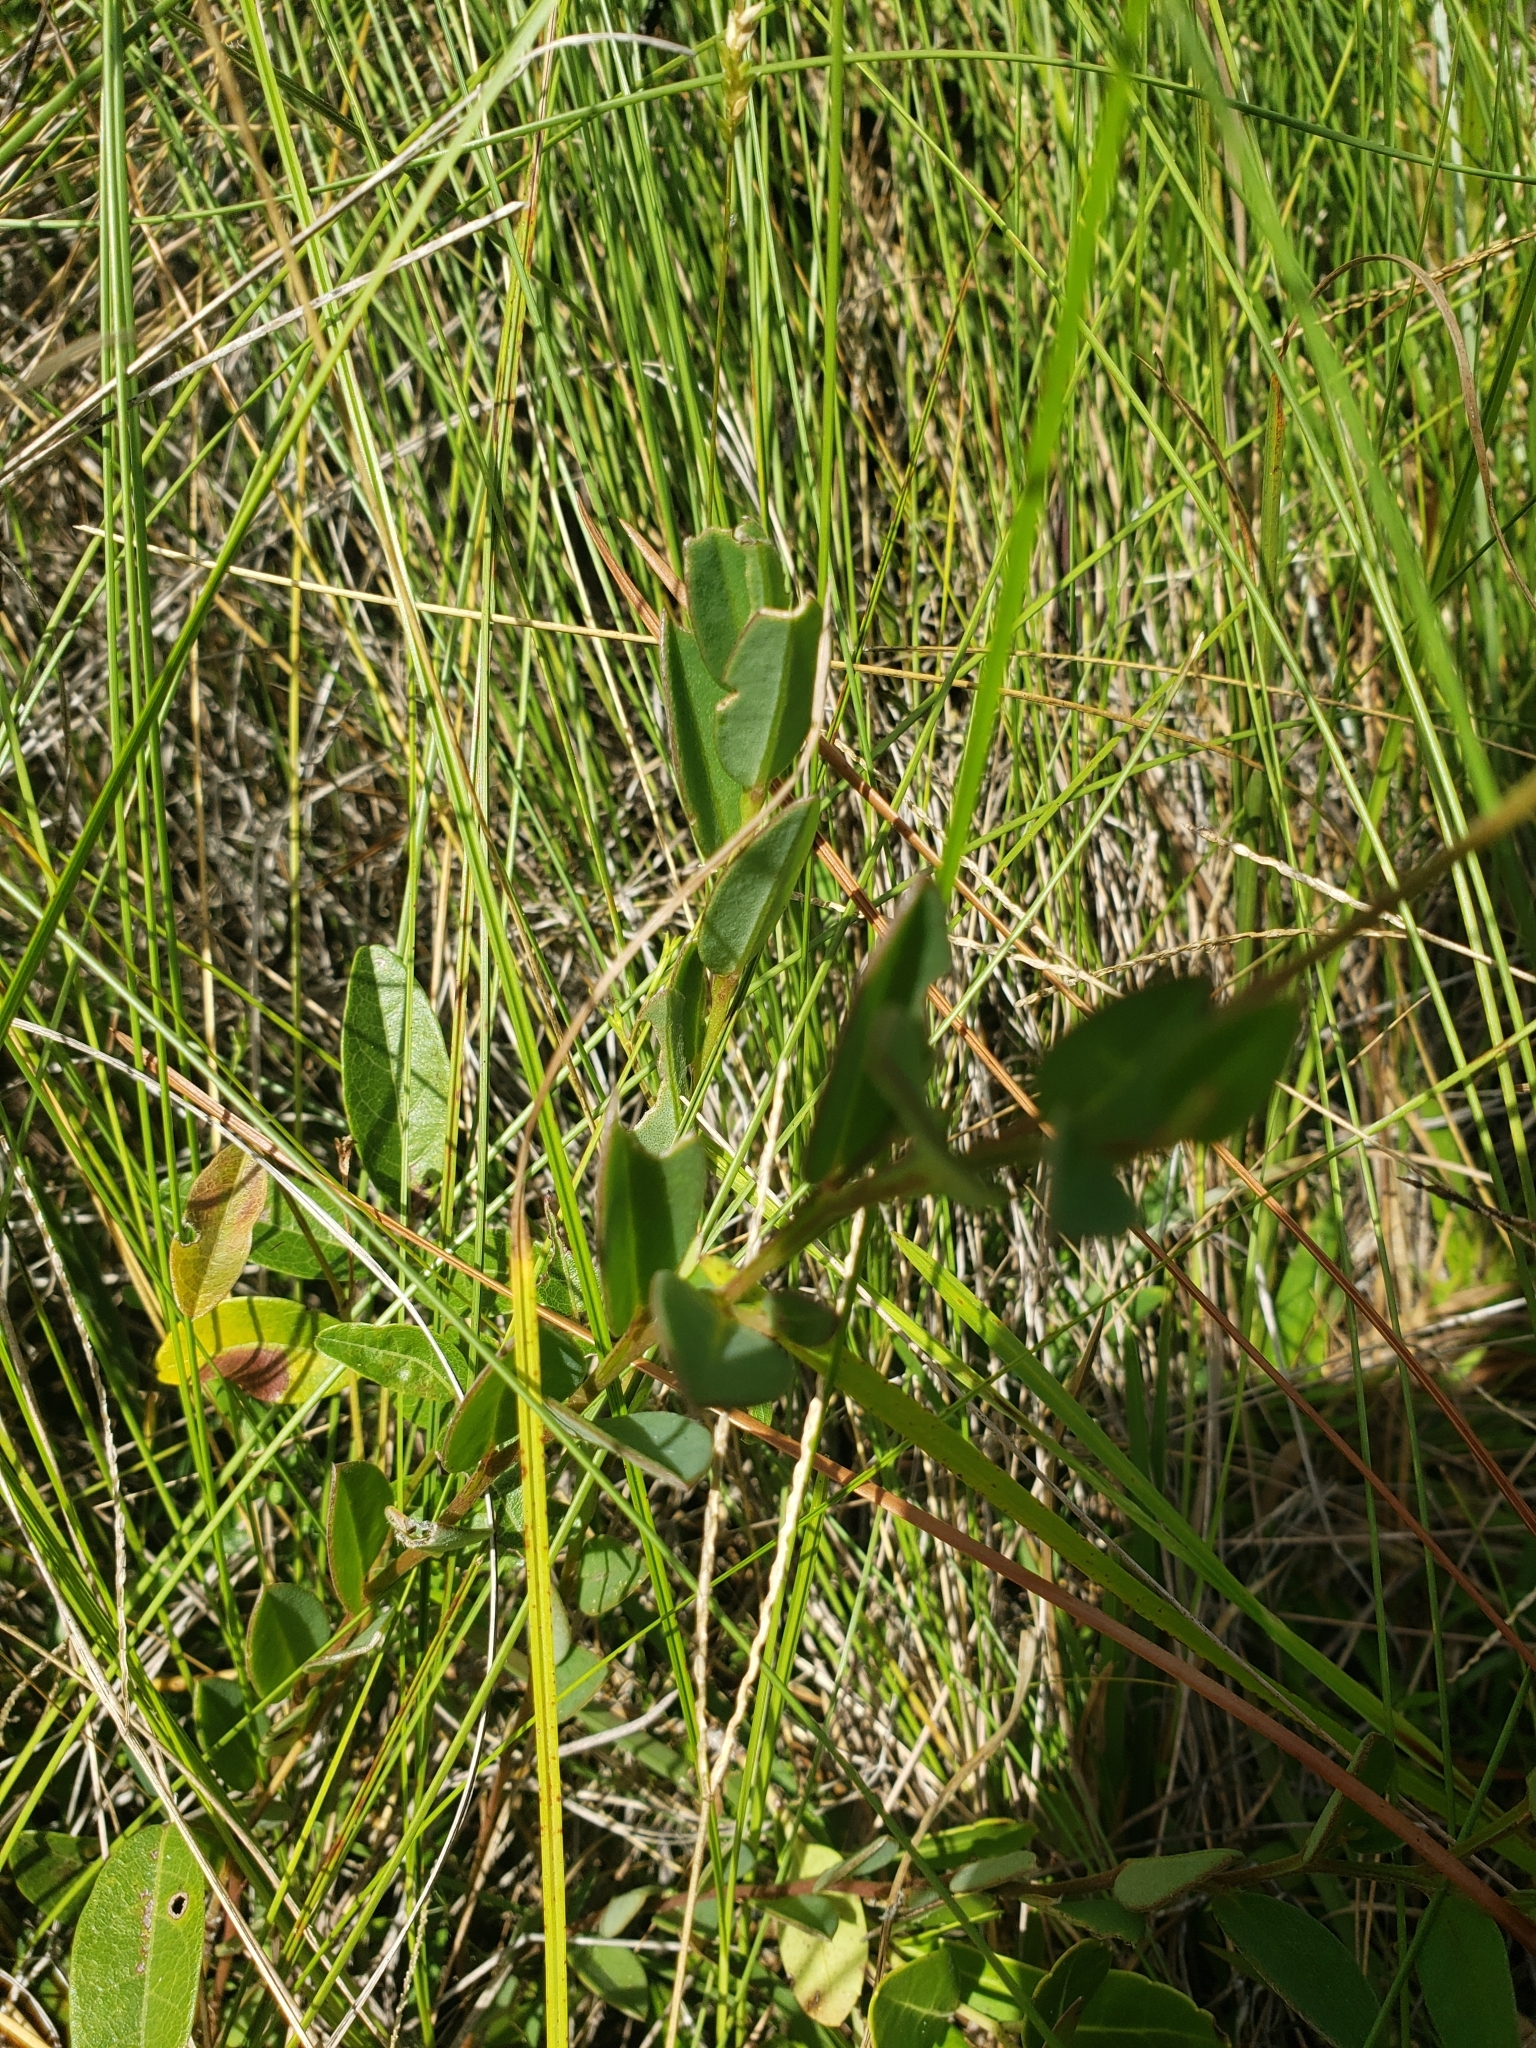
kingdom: Plantae
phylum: Tracheophyta
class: Magnoliopsida
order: Fabales
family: Fabaceae
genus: Crotalaria
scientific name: Crotalaria rotundifolia
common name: Prostrate rattlebox
